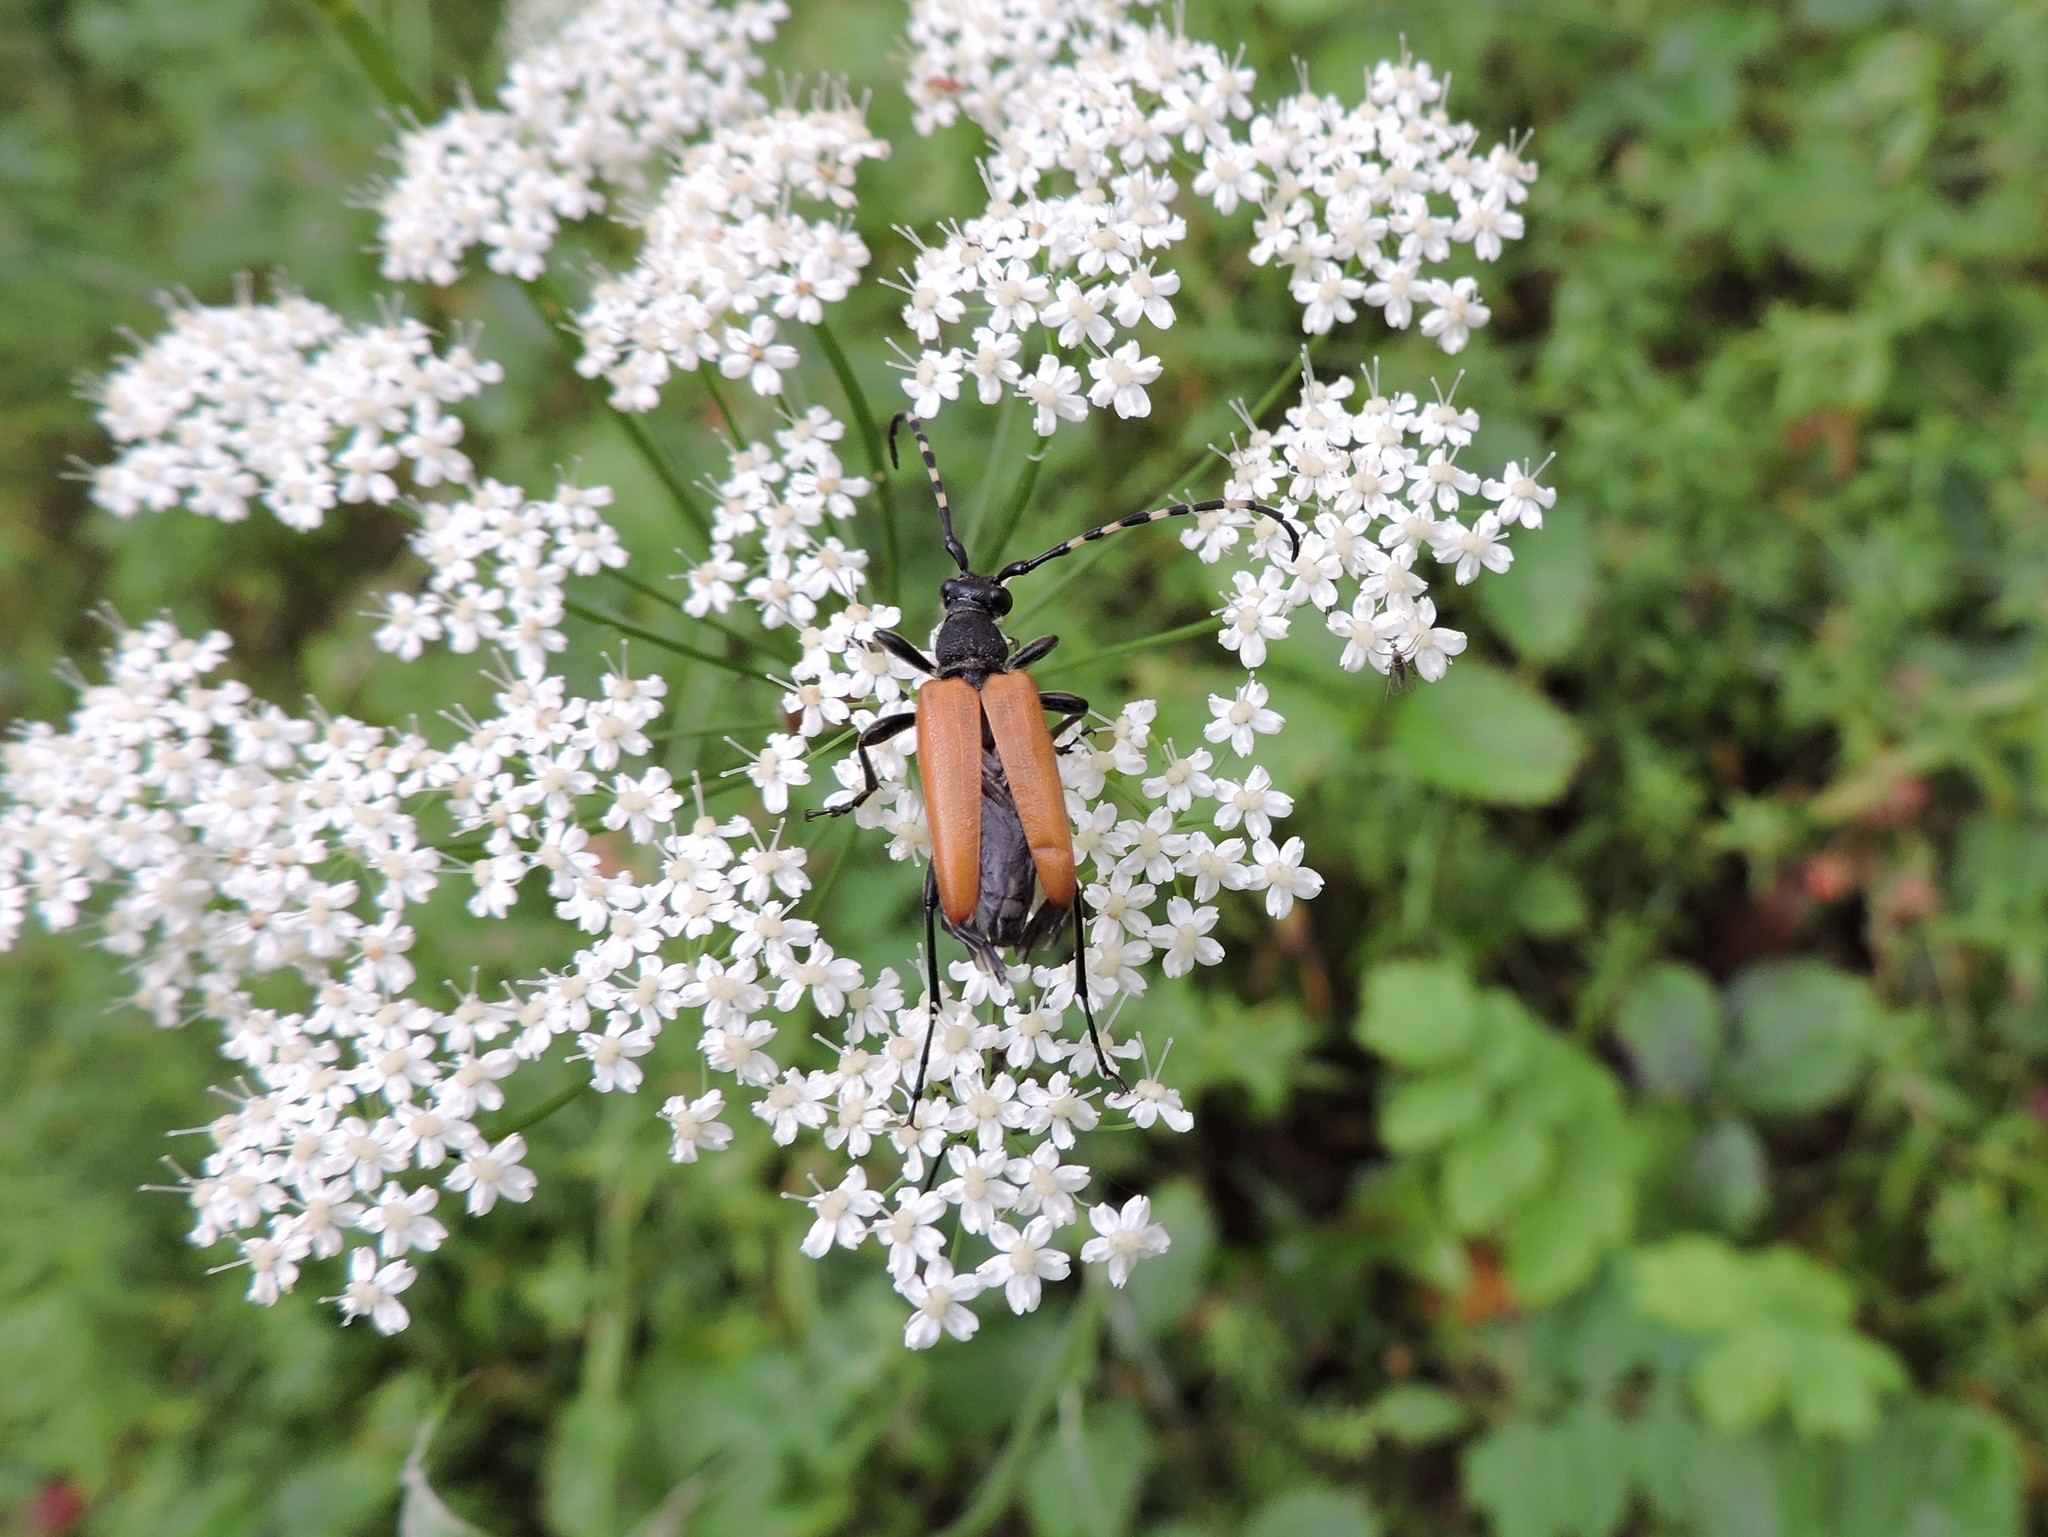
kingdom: Animalia
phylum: Arthropoda
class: Insecta
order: Coleoptera
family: Cerambycidae
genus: Stictoleptura
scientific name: Stictoleptura variicornis
